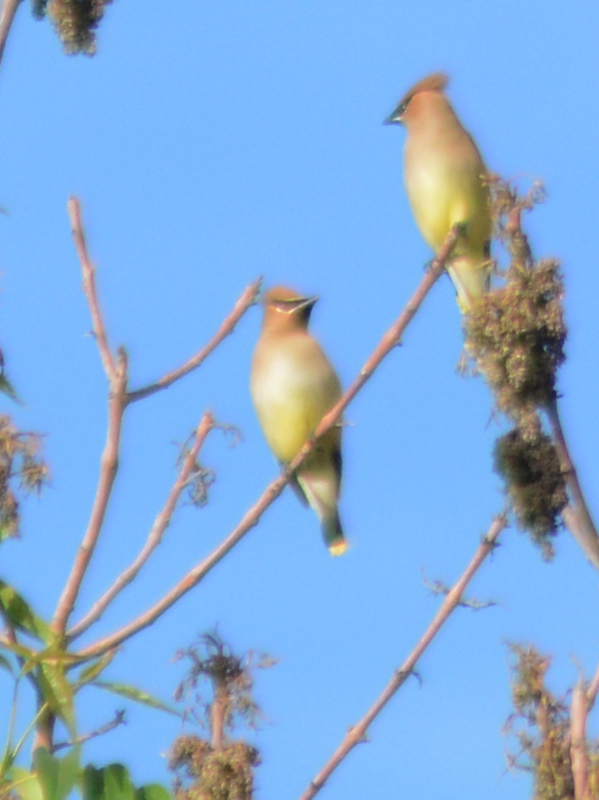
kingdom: Animalia
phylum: Chordata
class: Aves
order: Passeriformes
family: Bombycillidae
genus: Bombycilla
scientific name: Bombycilla cedrorum
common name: Cedar waxwing
